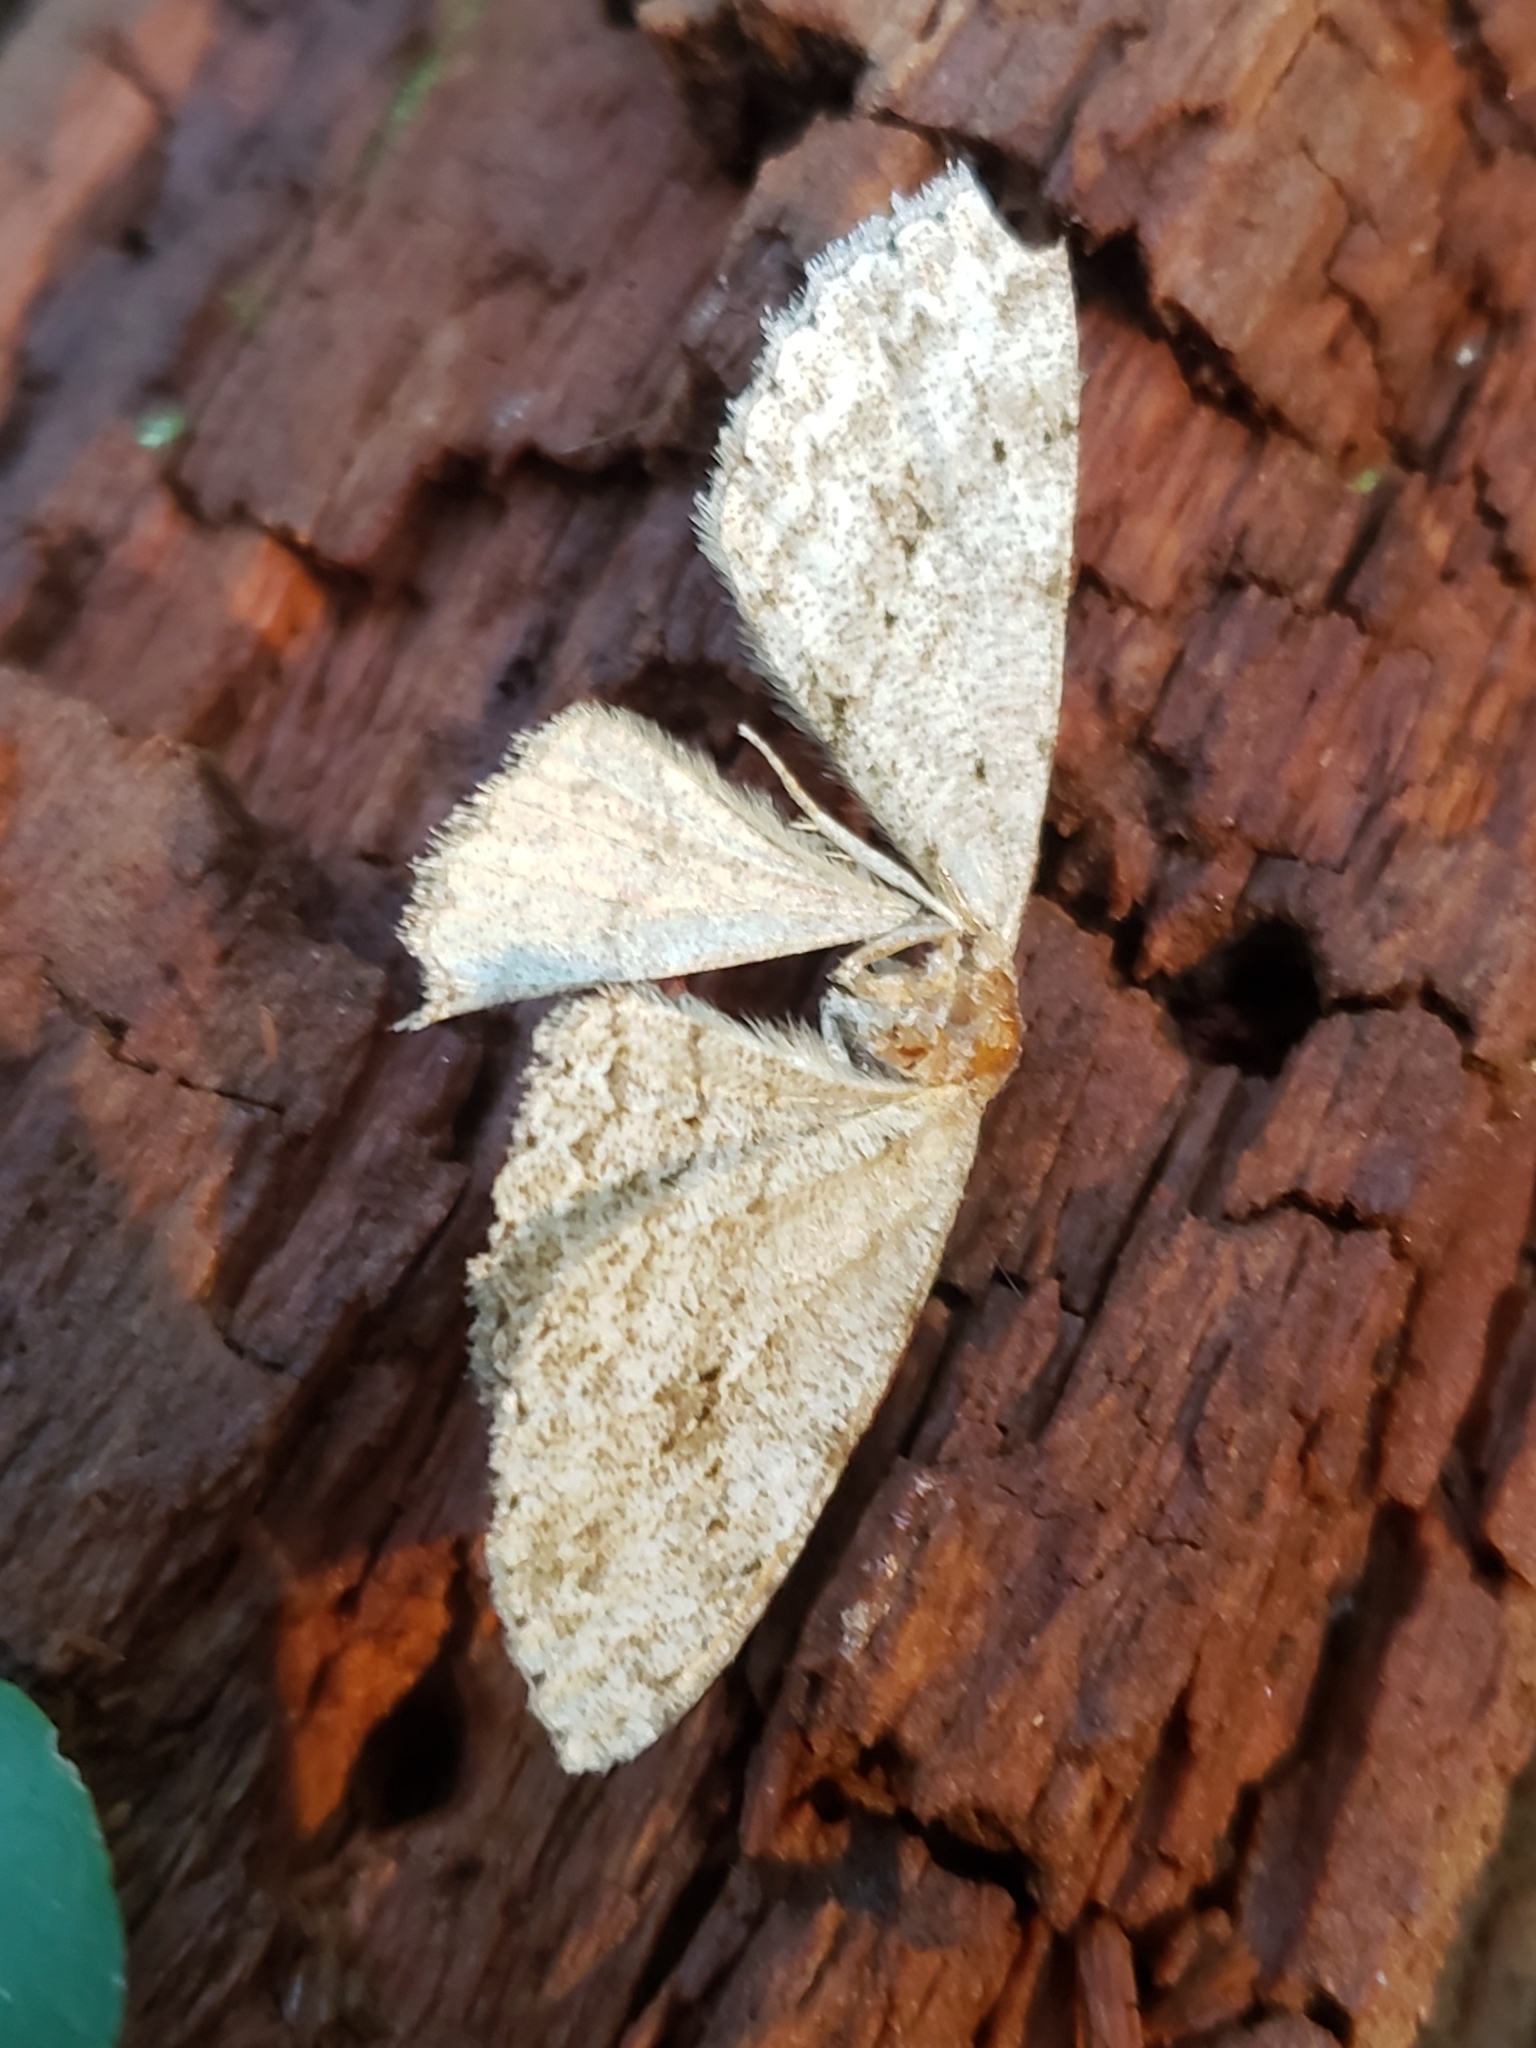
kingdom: Animalia
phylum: Arthropoda
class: Insecta
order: Lepidoptera
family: Geometridae
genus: Ectropis
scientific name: Ectropis crepuscularia
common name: Engrailed
